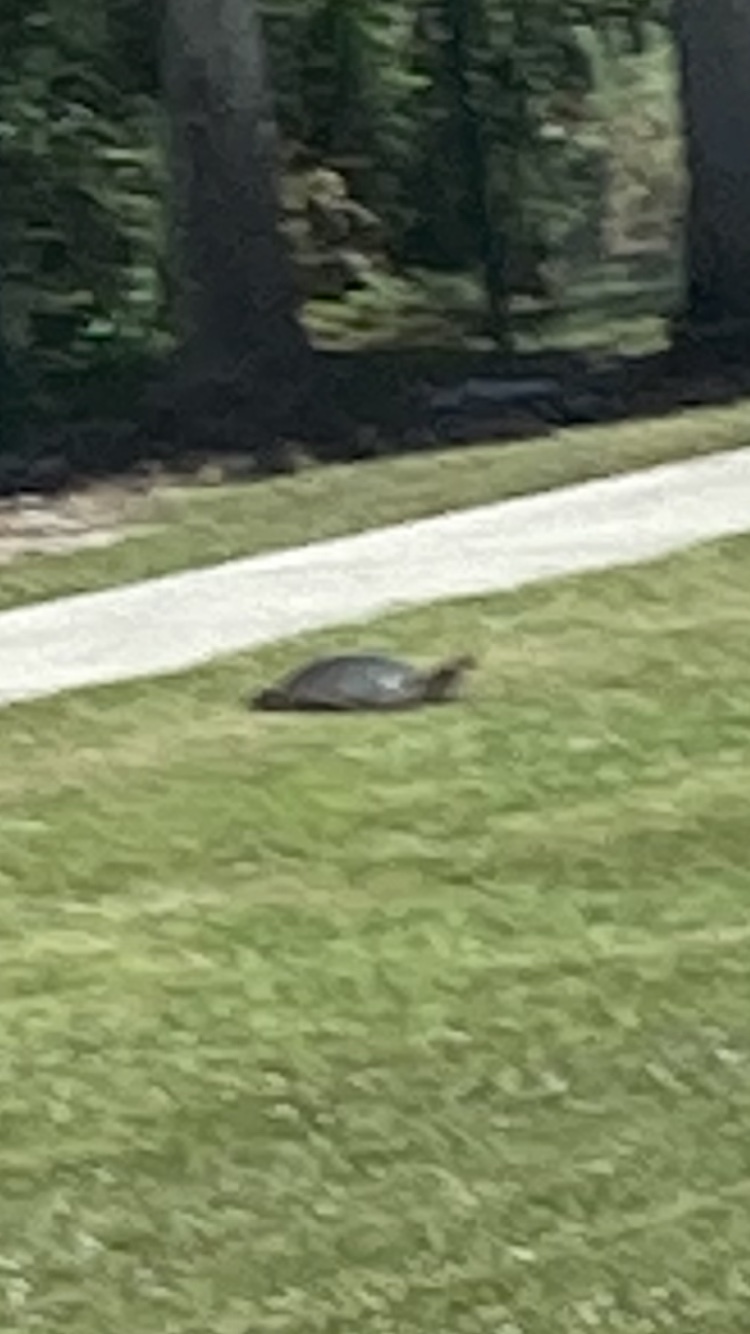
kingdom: Animalia
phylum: Chordata
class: Testudines
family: Trionychidae
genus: Apalone
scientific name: Apalone ferox
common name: Florida softshell turtle
